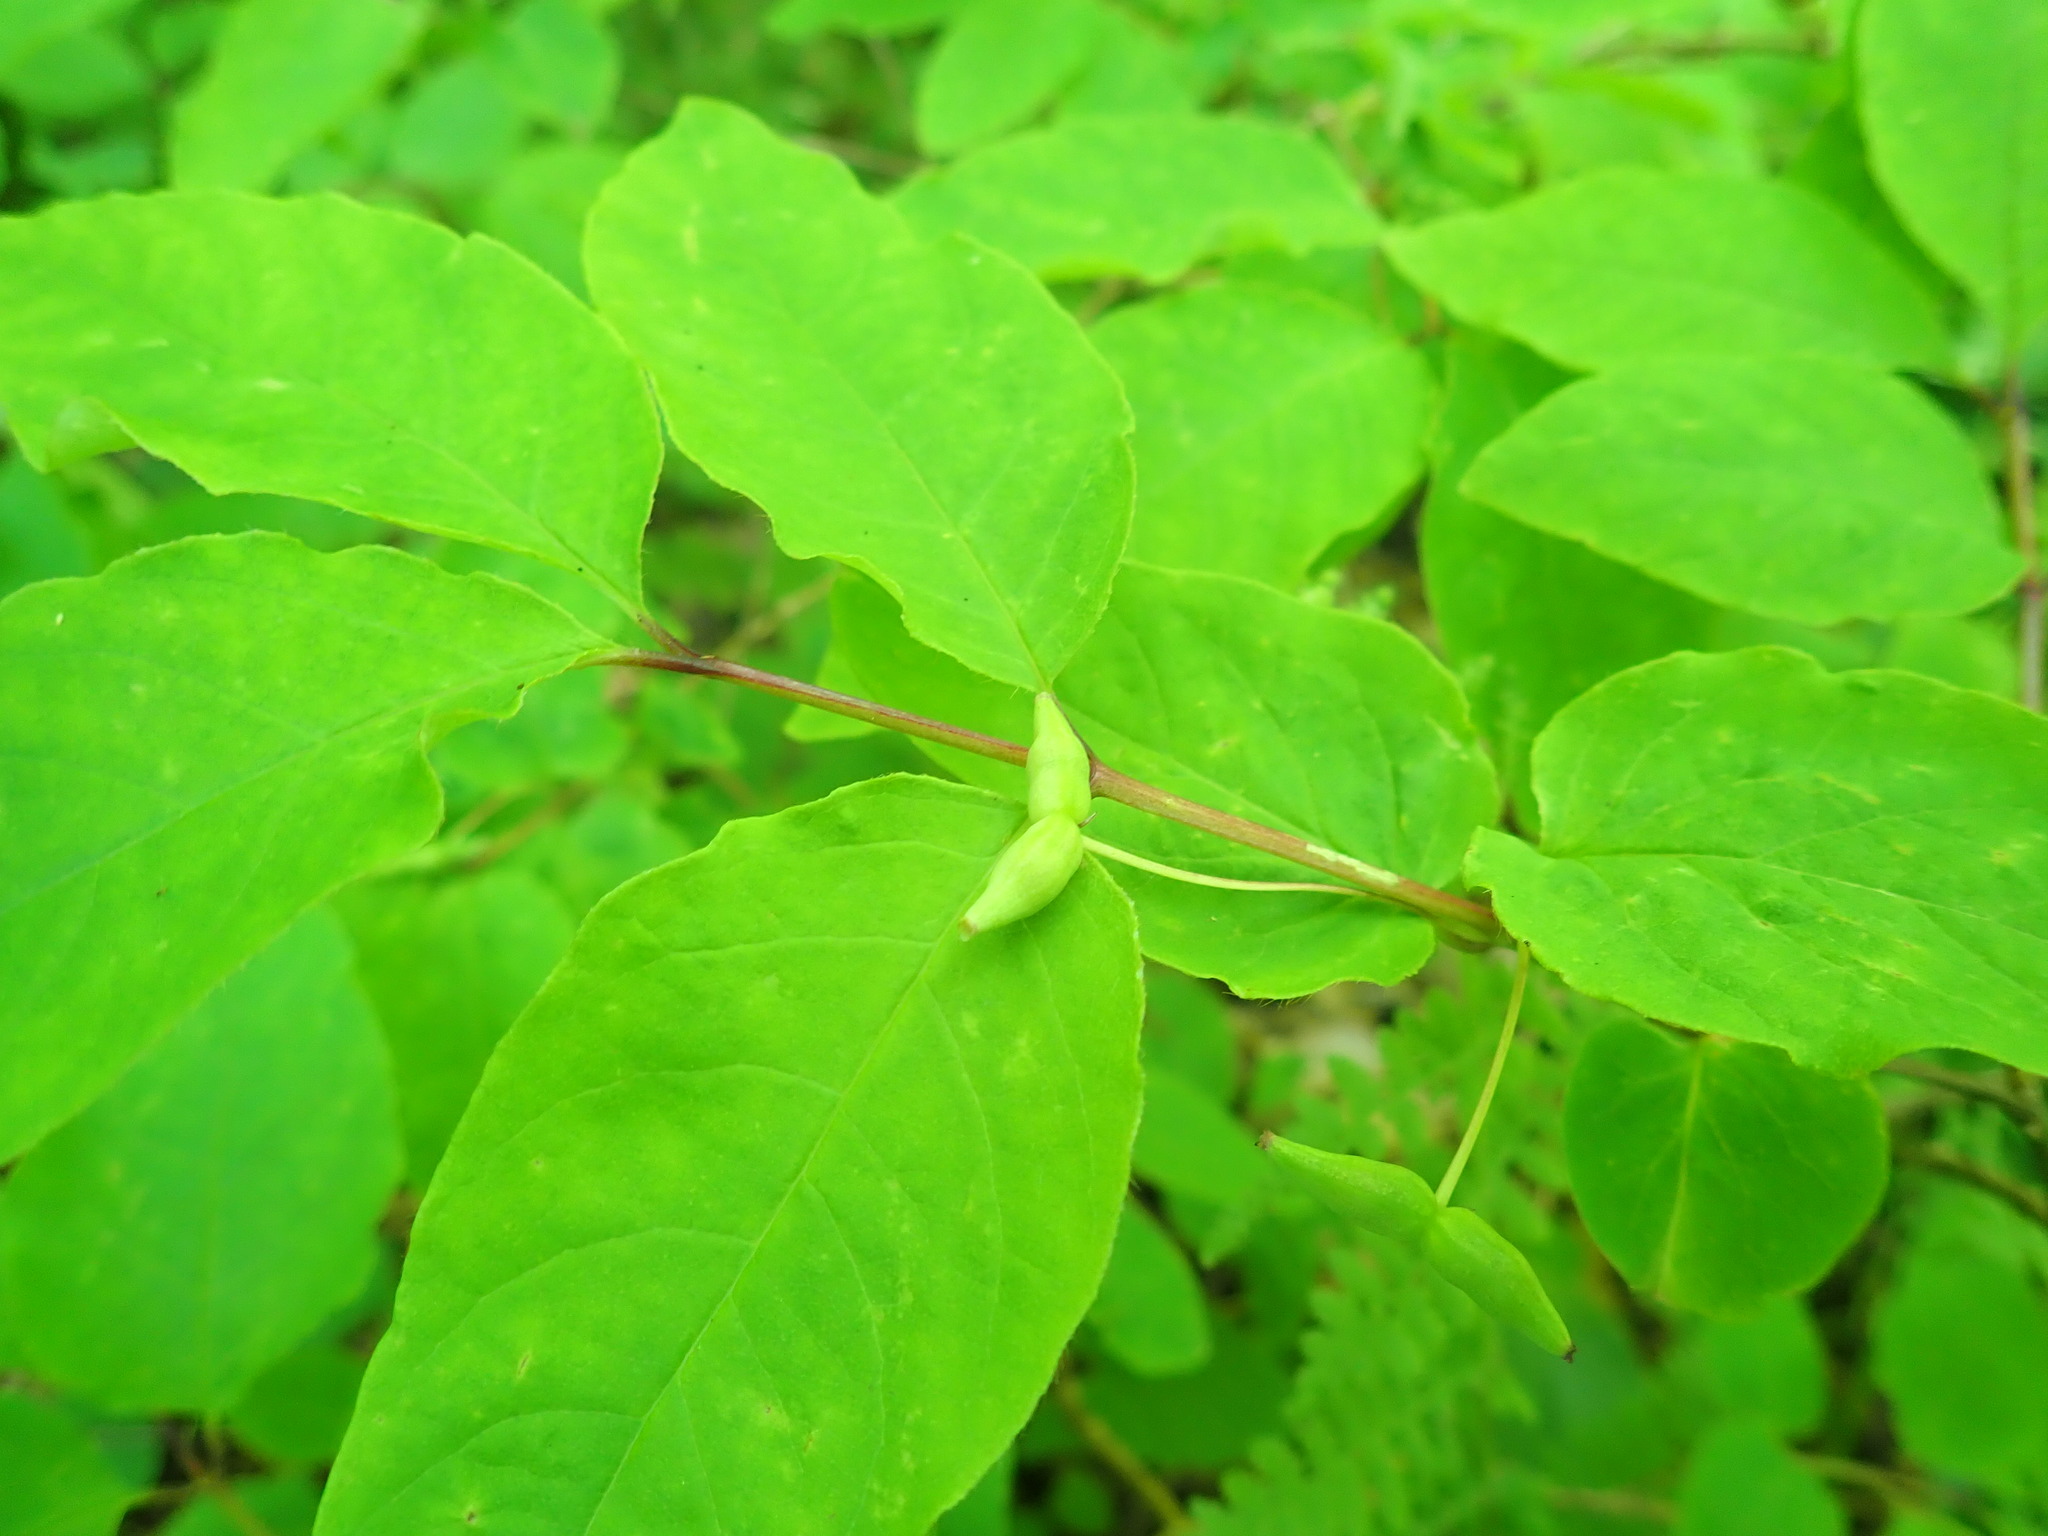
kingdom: Plantae
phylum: Tracheophyta
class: Magnoliopsida
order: Dipsacales
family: Caprifoliaceae
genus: Lonicera
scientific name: Lonicera canadensis
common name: American fly-honeysuckle
